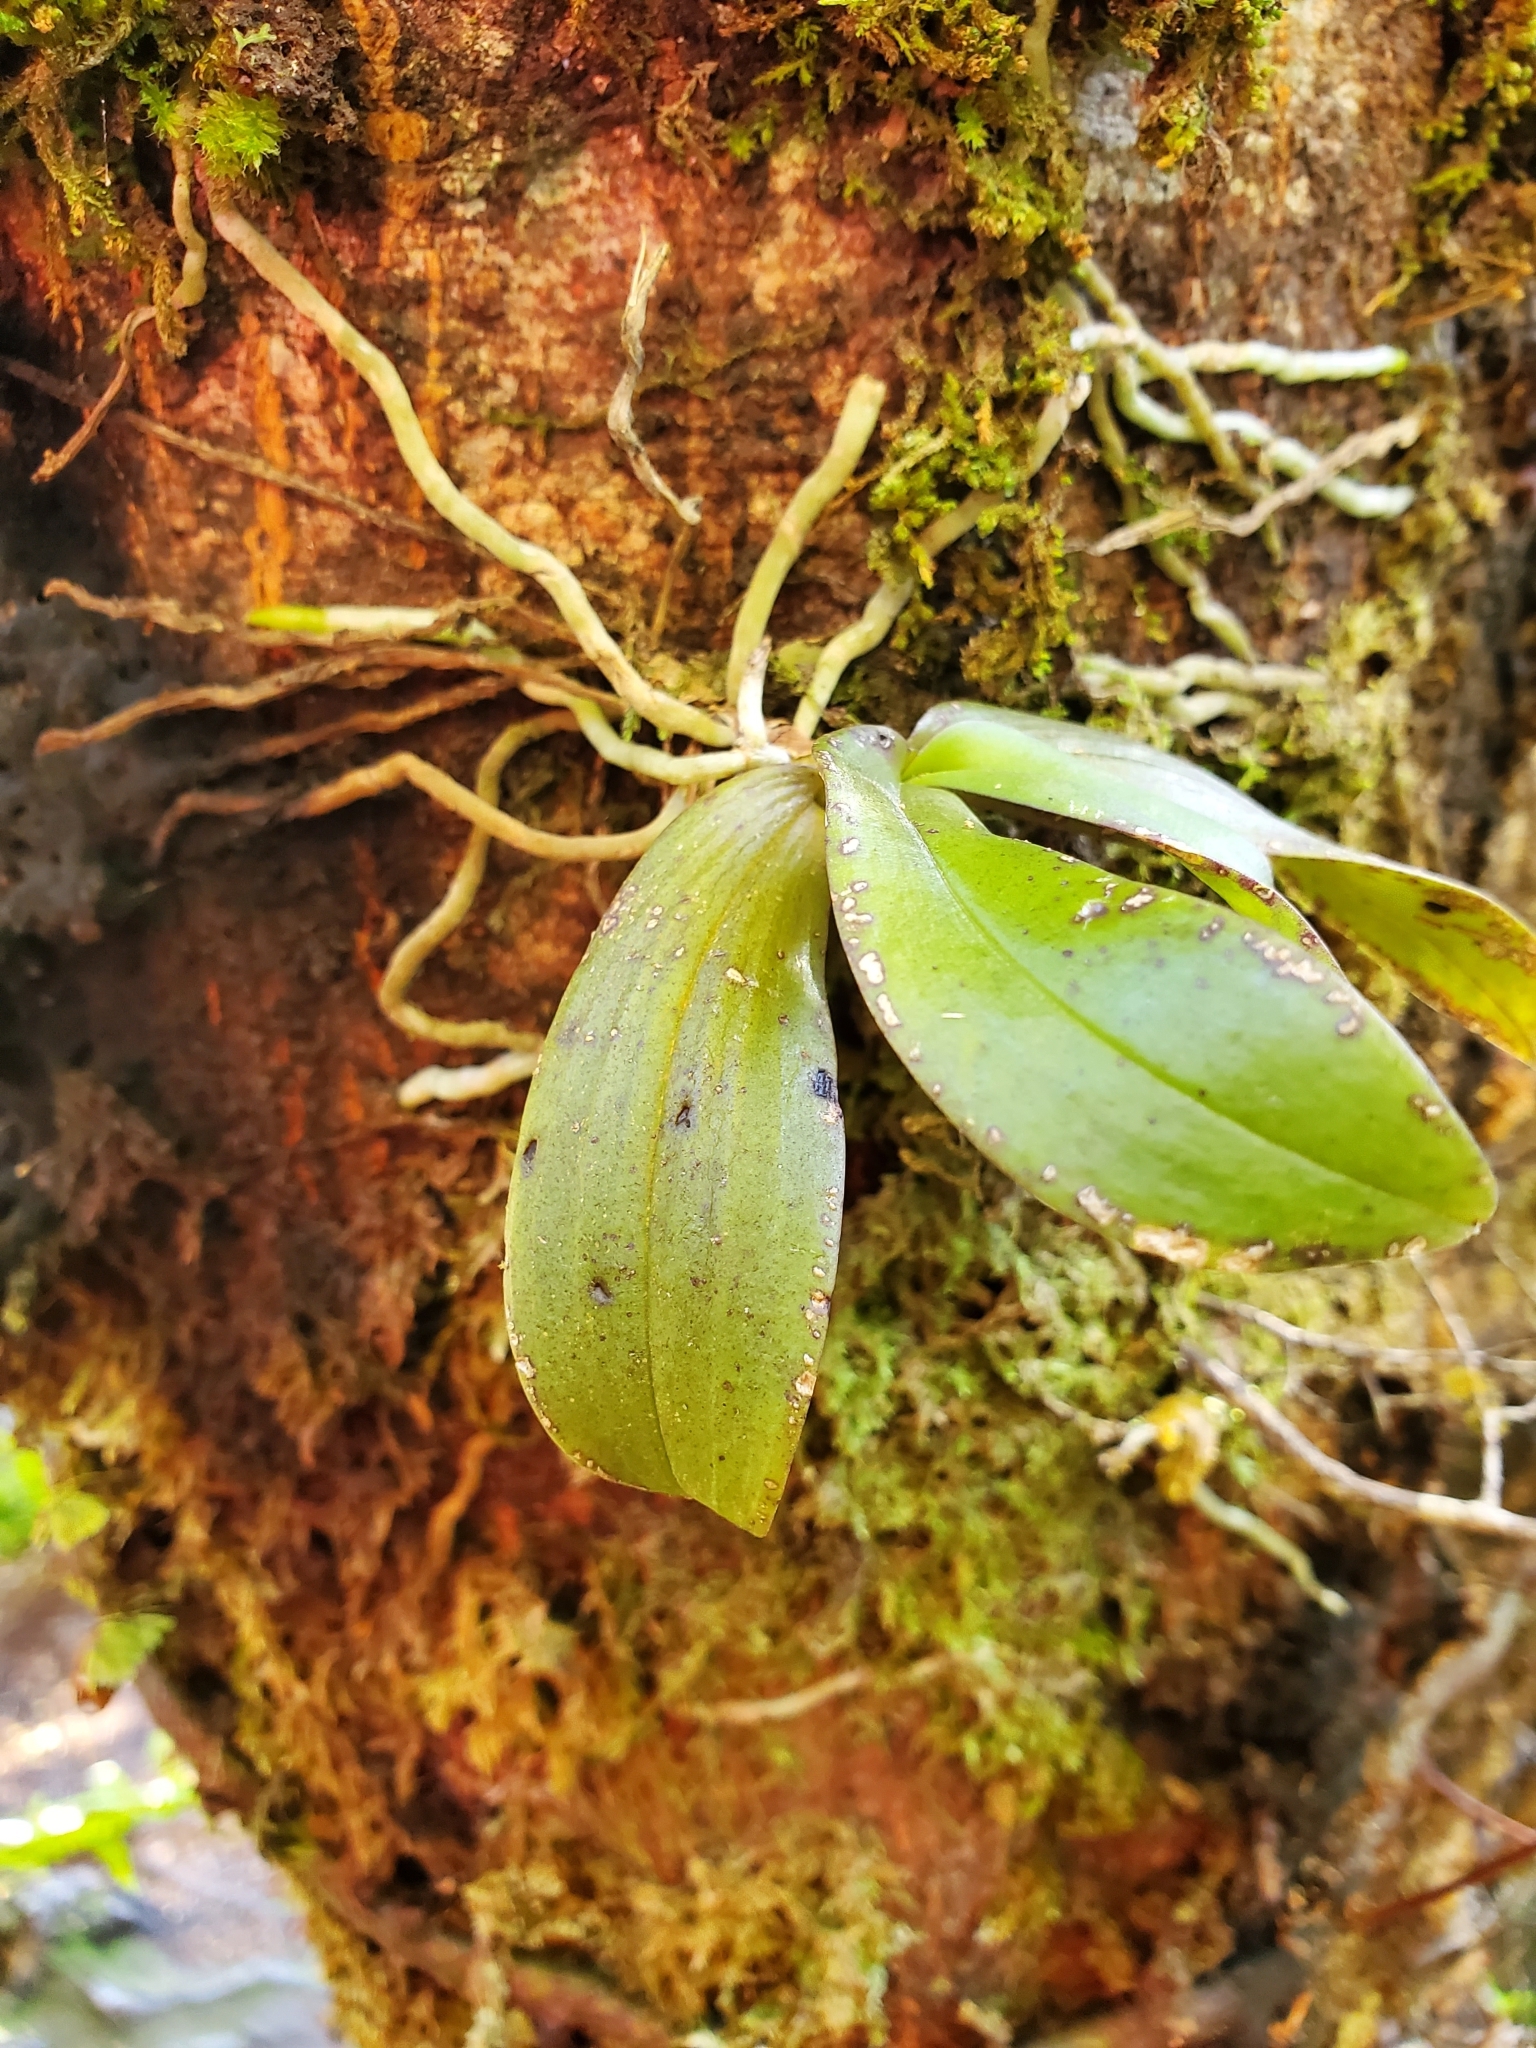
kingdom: Plantae
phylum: Tracheophyta
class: Liliopsida
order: Asparagales
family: Orchidaceae
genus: Drymoanthus
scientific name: Drymoanthus adversus
